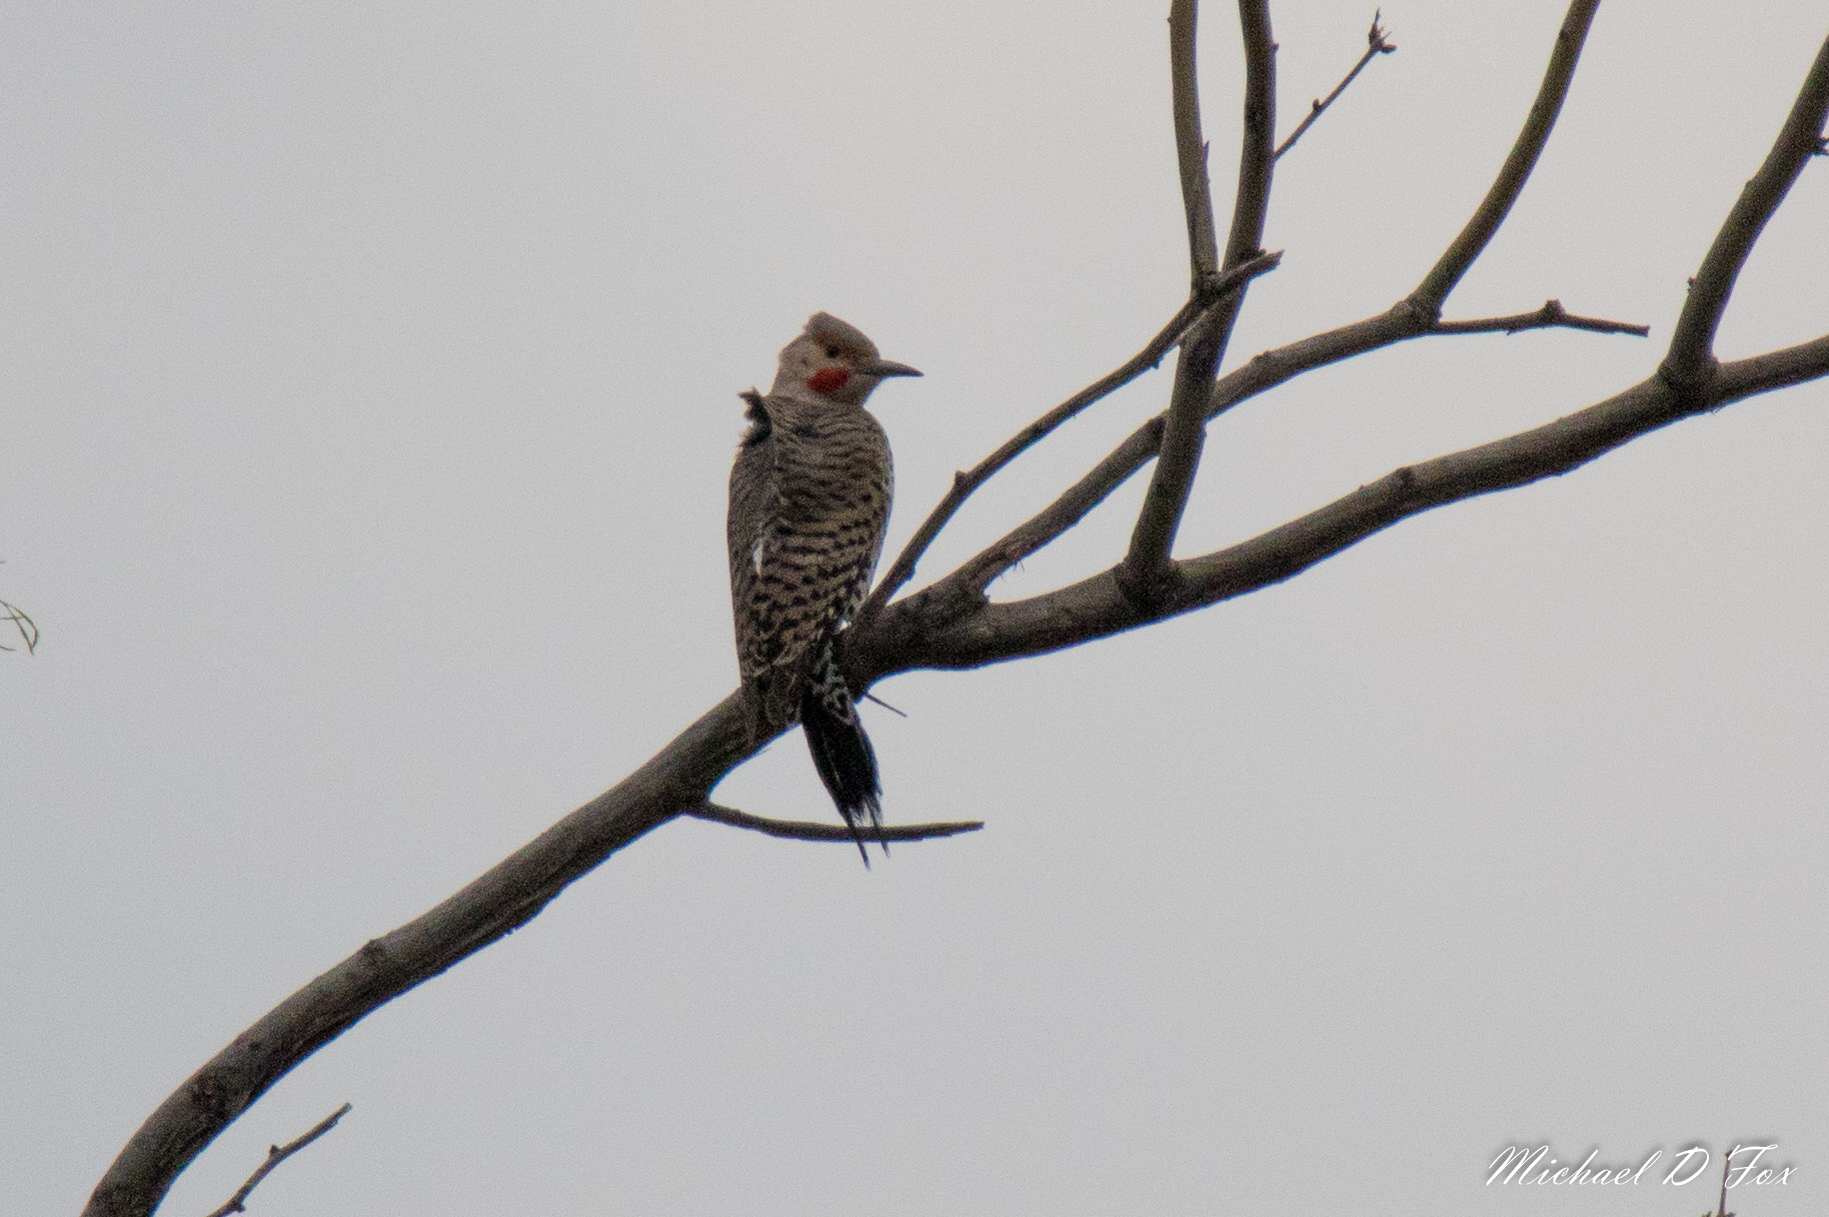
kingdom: Animalia
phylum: Chordata
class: Aves
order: Piciformes
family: Picidae
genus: Colaptes
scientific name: Colaptes auratus
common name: Northern flicker
